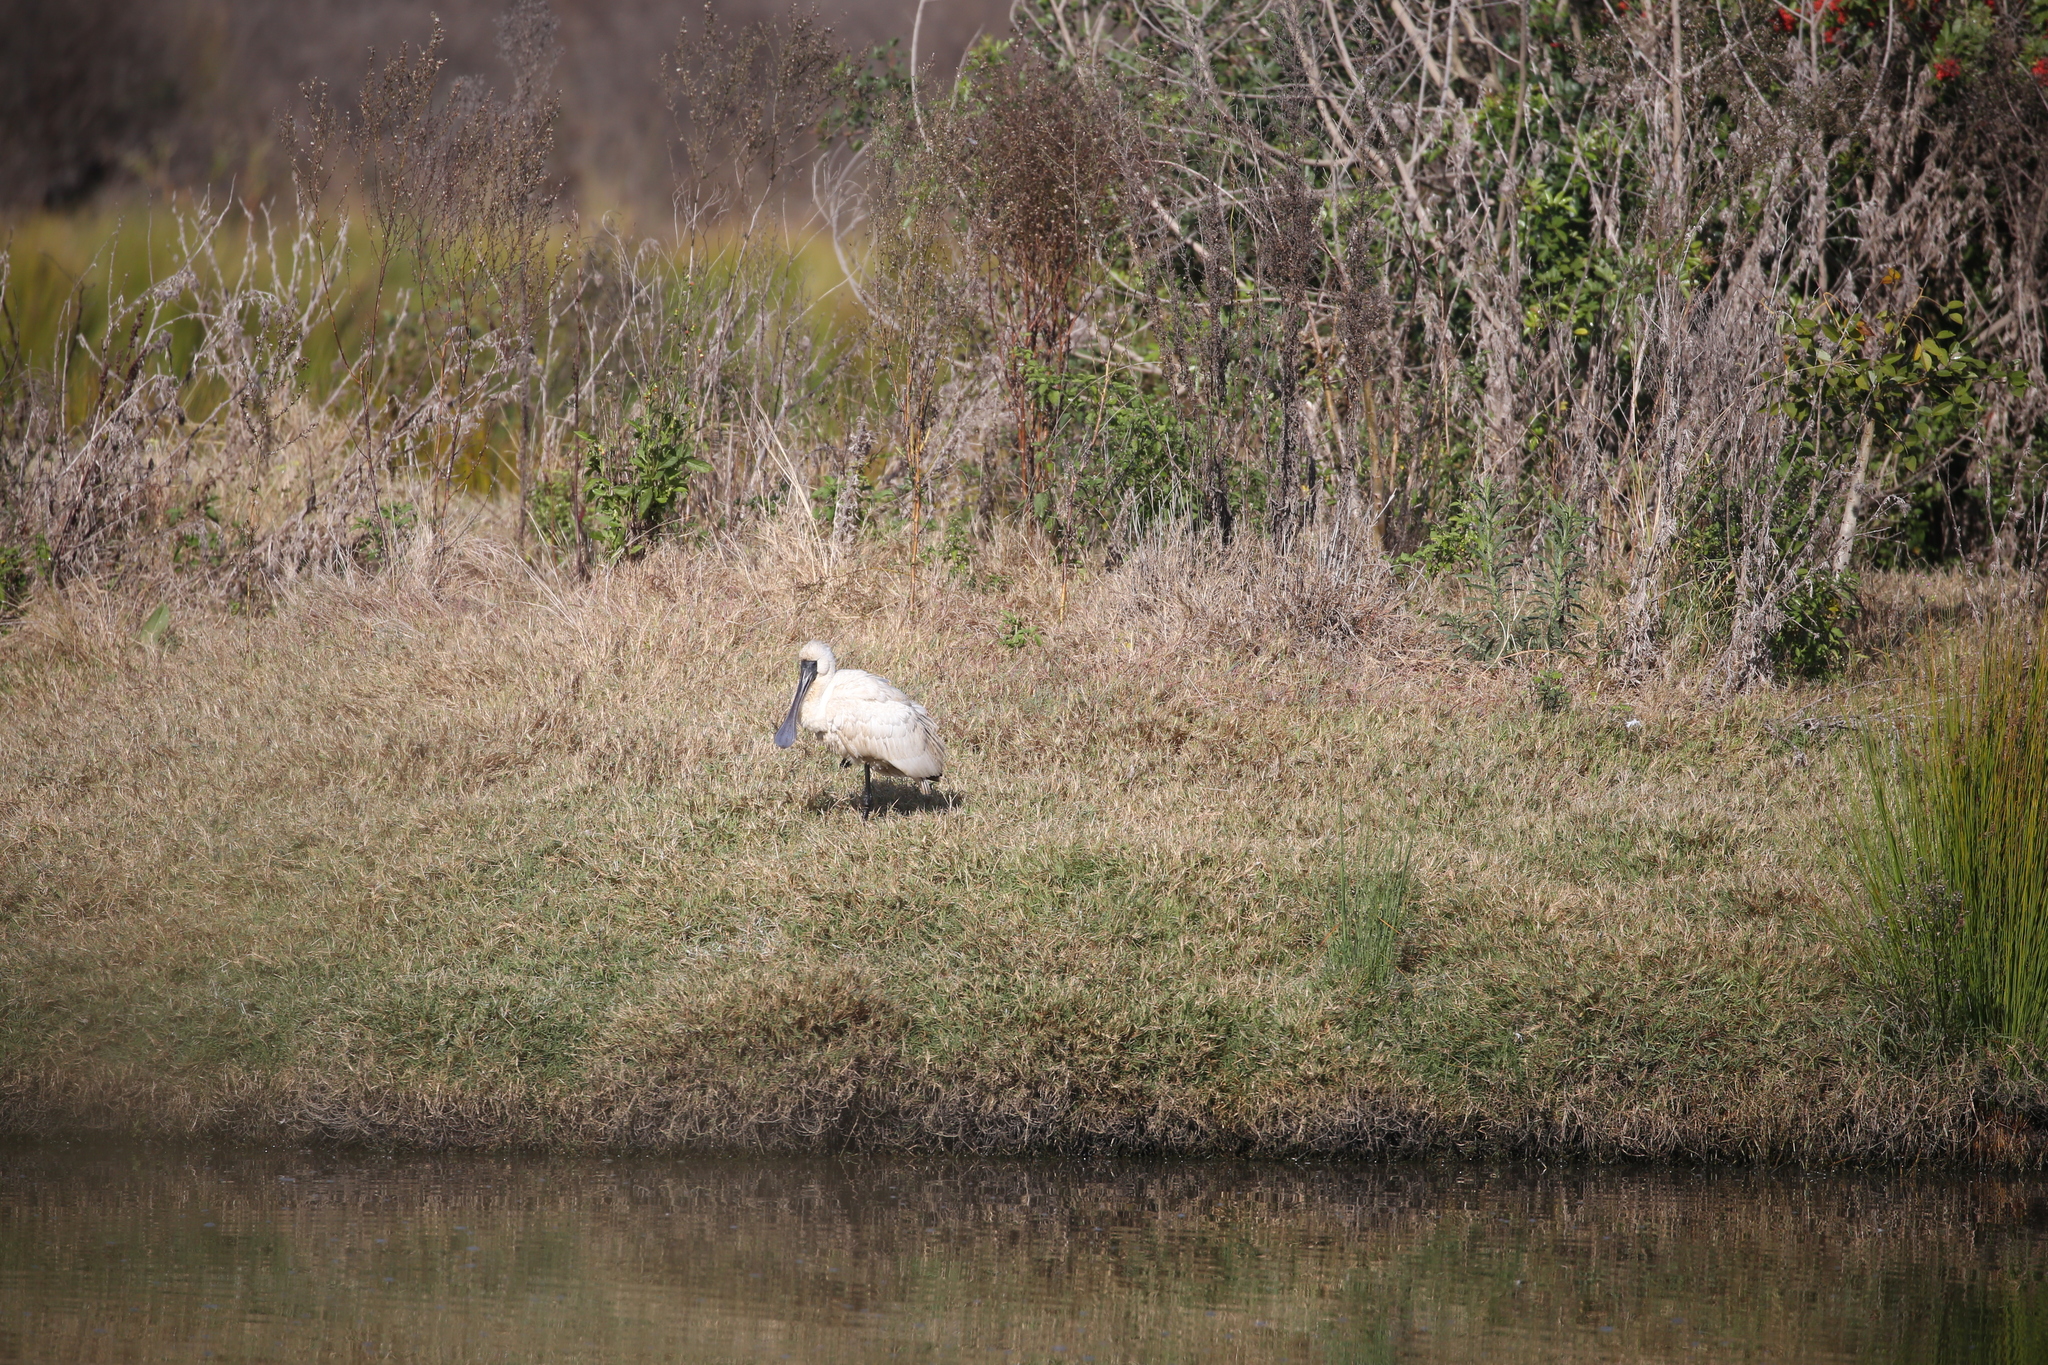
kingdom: Animalia
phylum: Chordata
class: Aves
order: Pelecaniformes
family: Threskiornithidae
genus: Platalea
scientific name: Platalea regia
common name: Royal spoonbill
